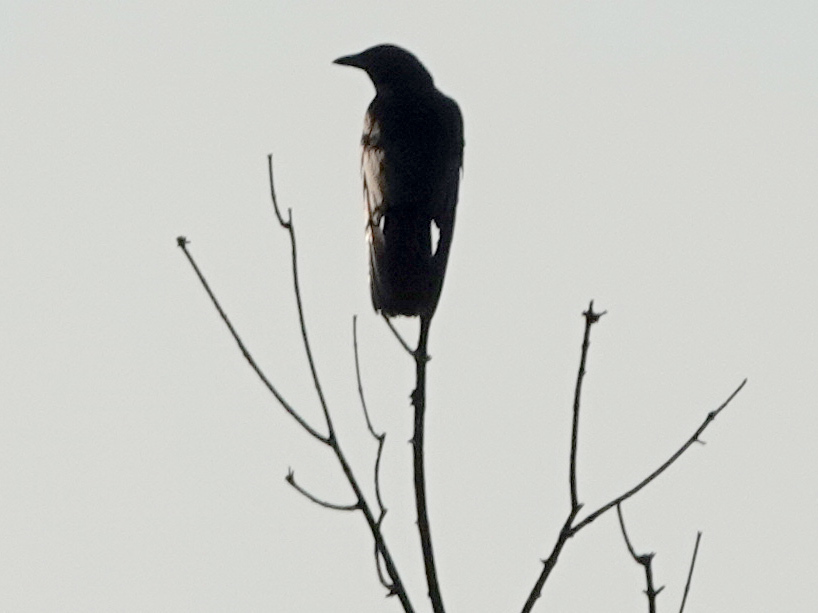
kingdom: Animalia
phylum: Chordata
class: Aves
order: Passeriformes
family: Corvidae
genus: Corvus
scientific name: Corvus brachyrhynchos
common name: American crow
